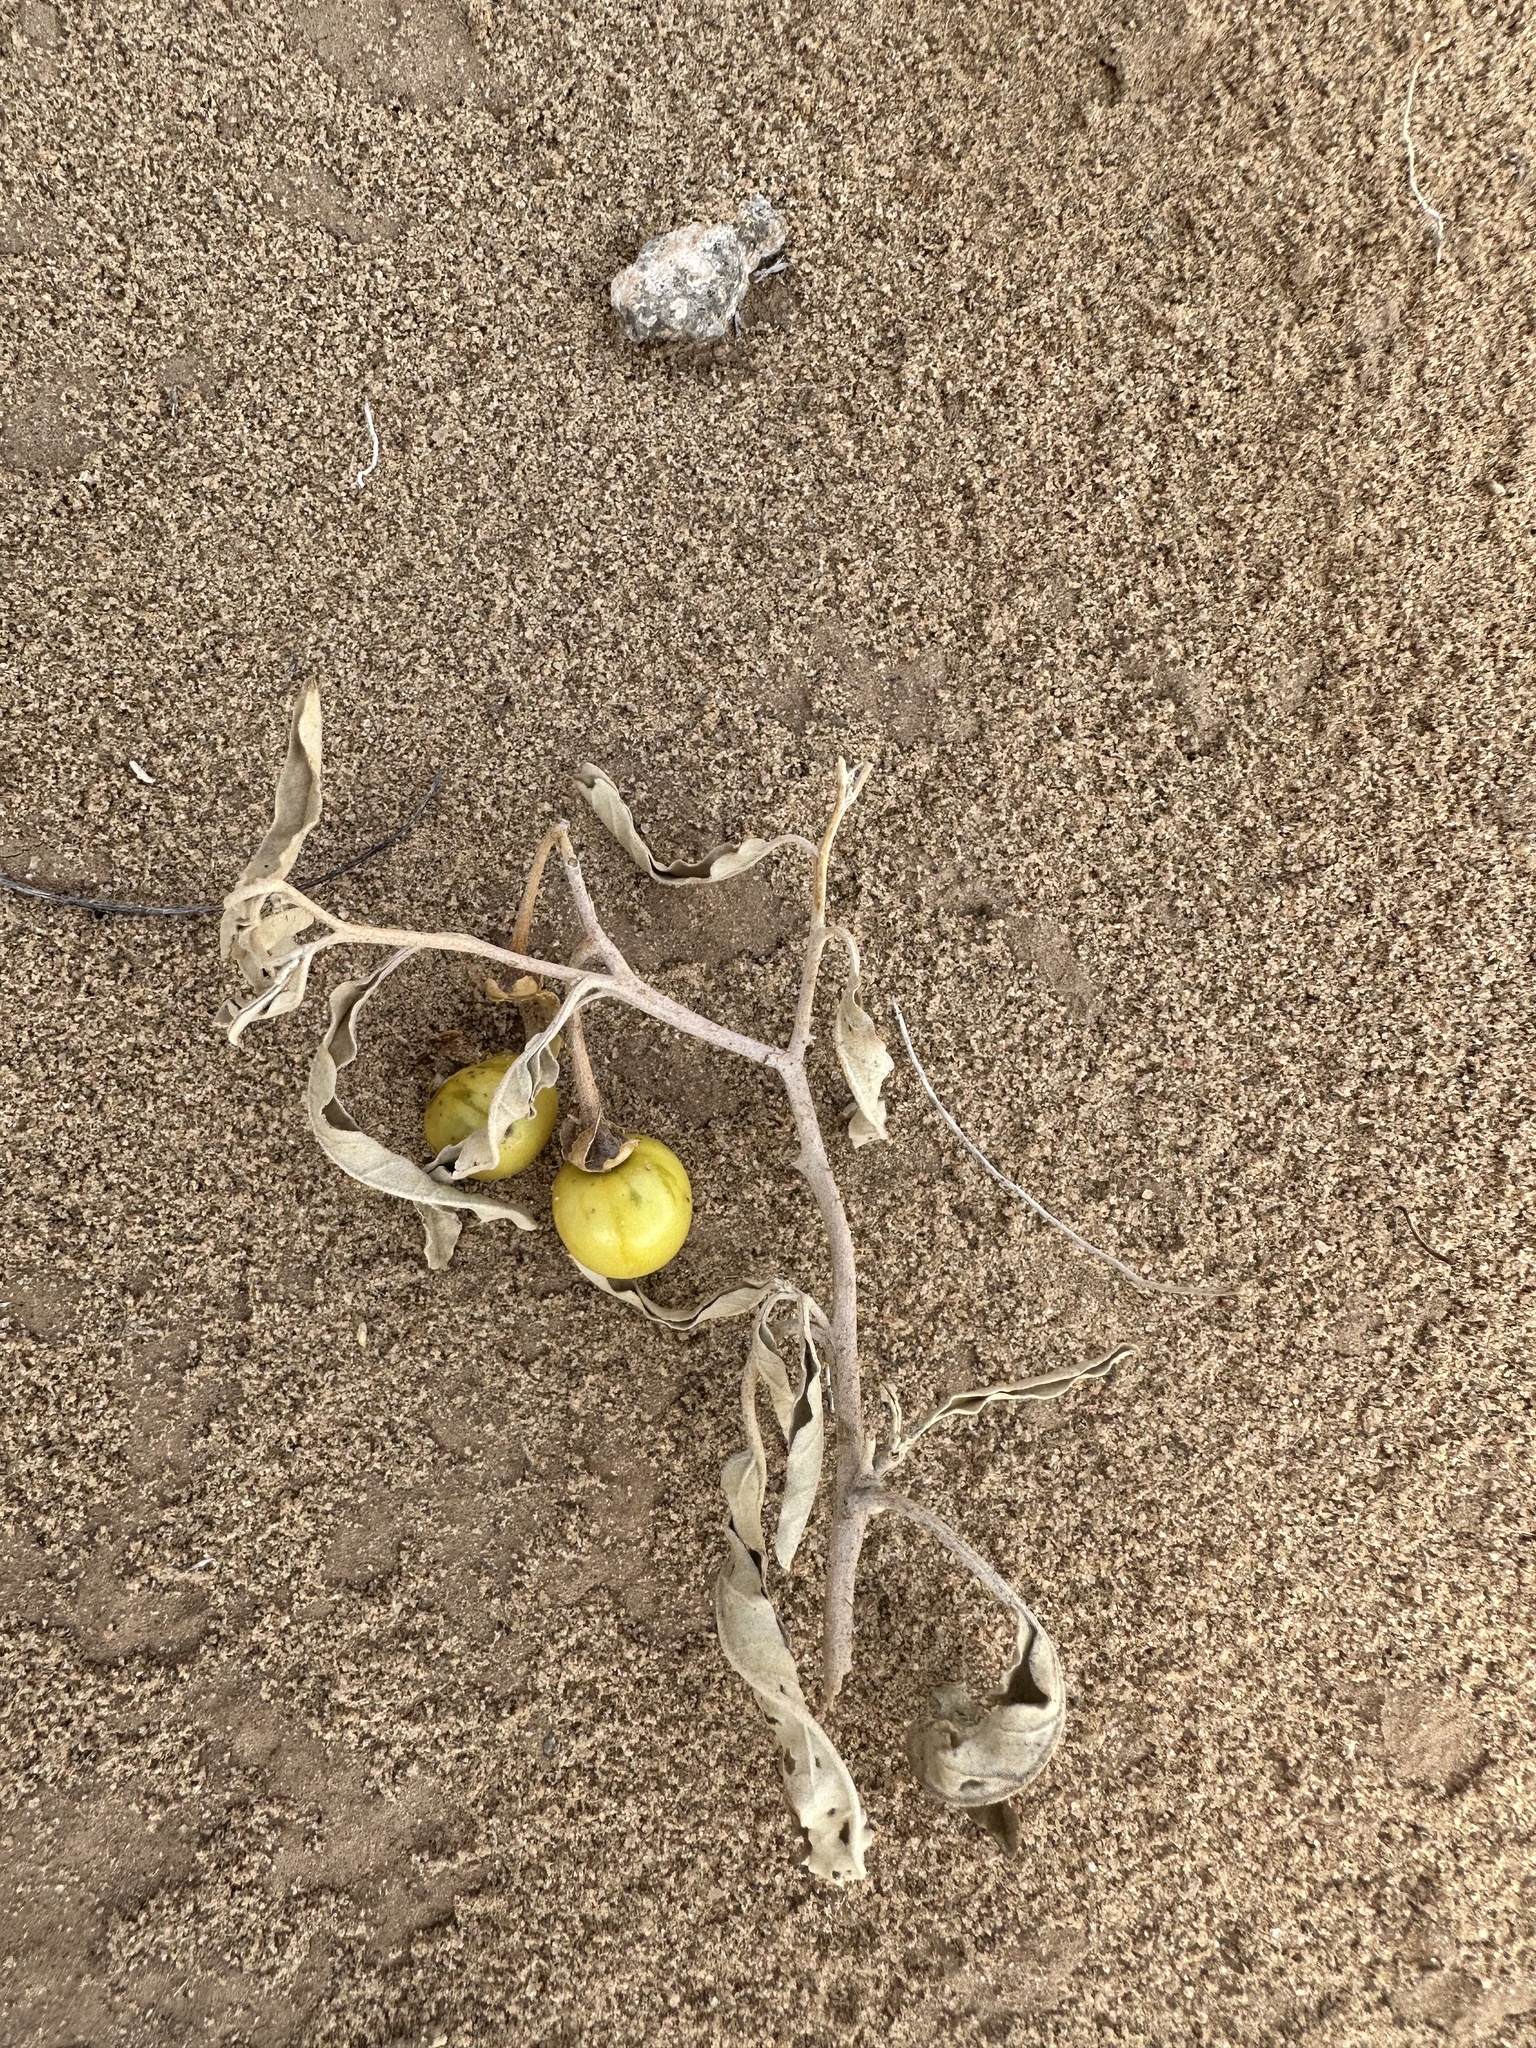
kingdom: Plantae
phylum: Tracheophyta
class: Magnoliopsida
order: Solanales
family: Solanaceae
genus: Solanum
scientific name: Solanum elaeagnifolium
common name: Silverleaf nightshade
